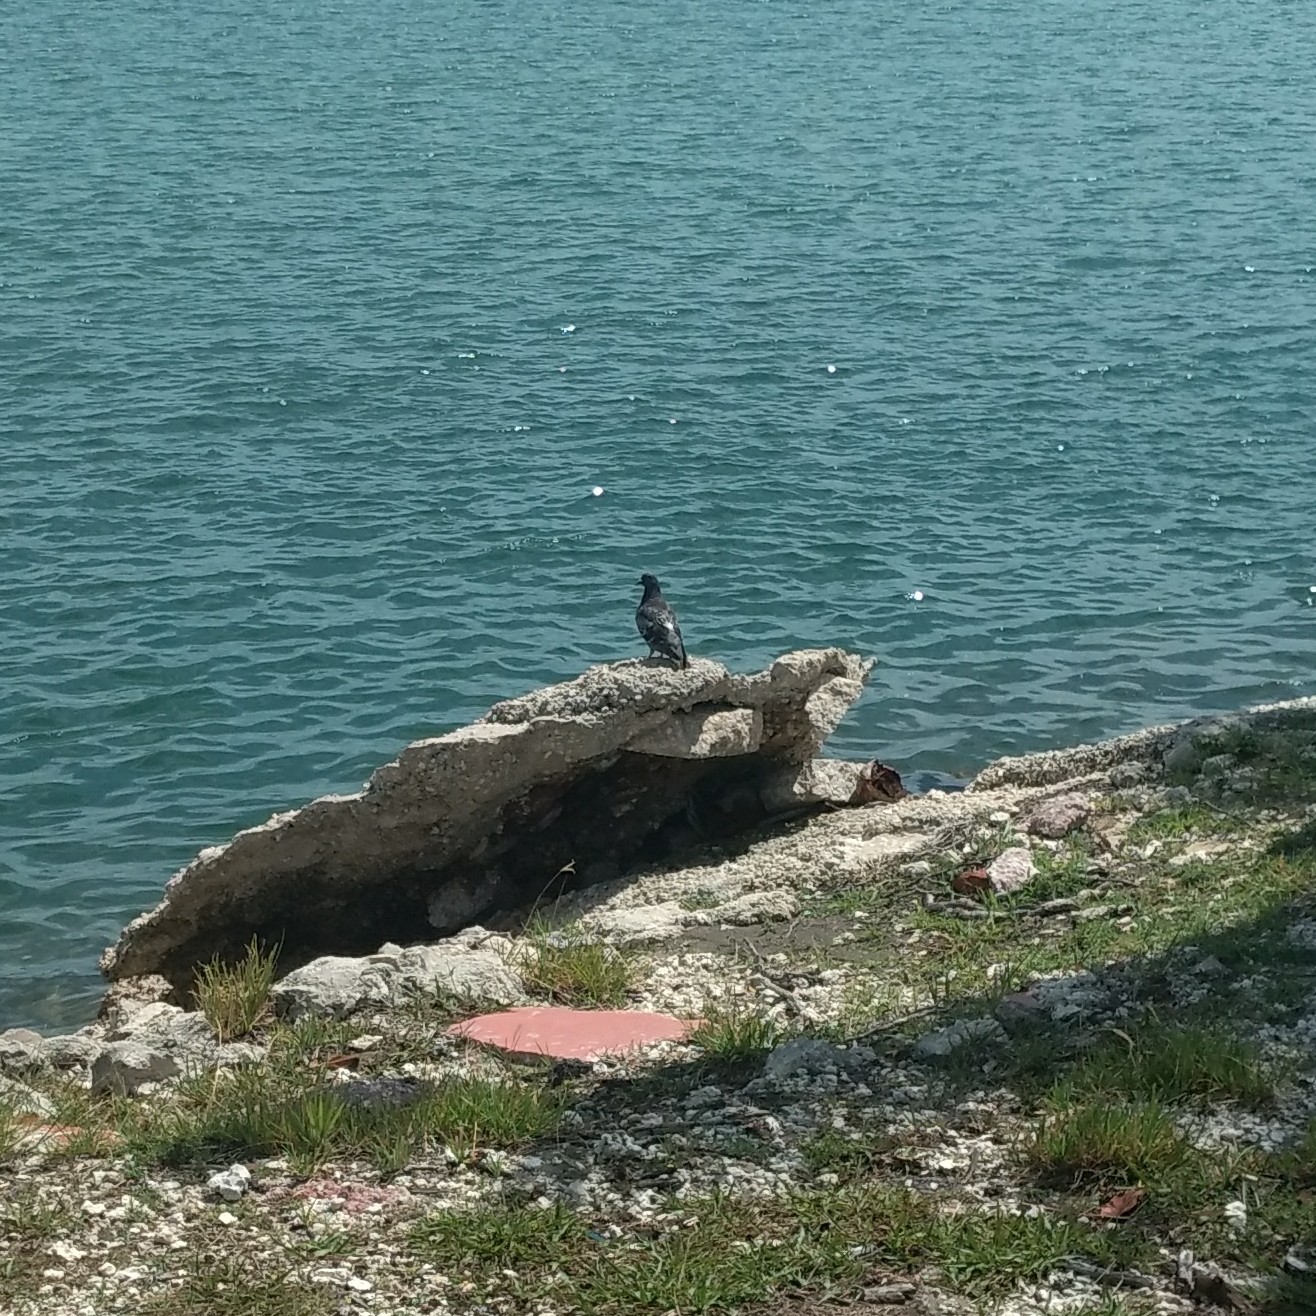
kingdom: Animalia
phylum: Chordata
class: Aves
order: Columbiformes
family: Columbidae
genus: Columba
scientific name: Columba livia
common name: Rock pigeon
